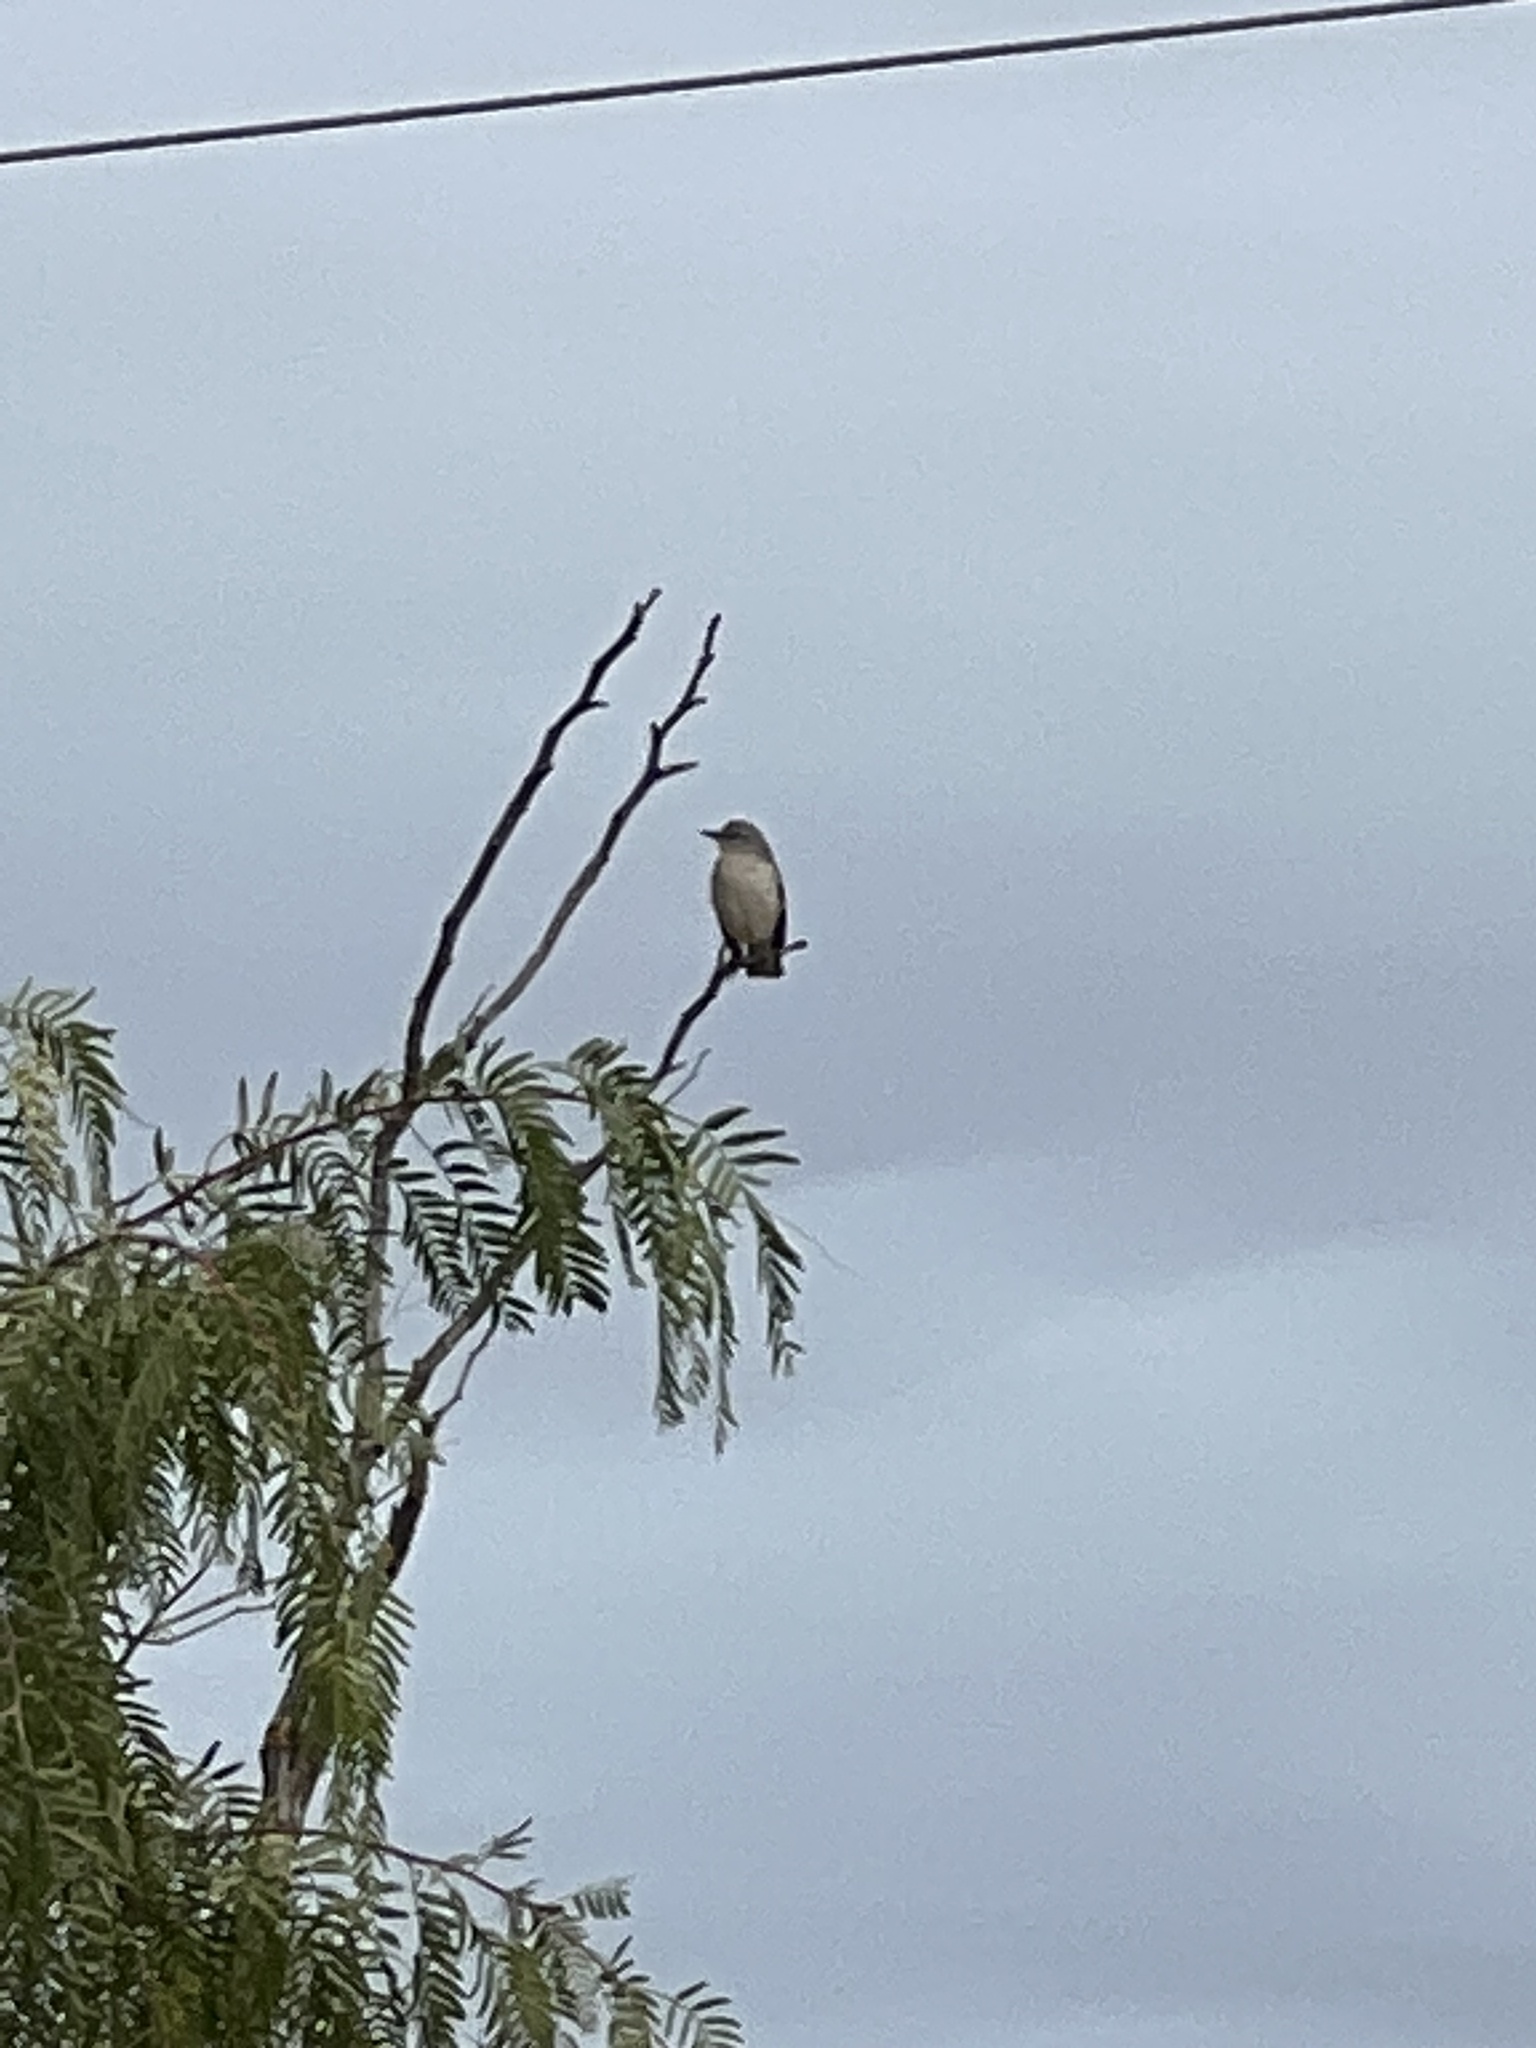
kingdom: Animalia
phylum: Chordata
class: Aves
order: Passeriformes
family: Mimidae
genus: Mimus
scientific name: Mimus polyglottos
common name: Northern mockingbird
